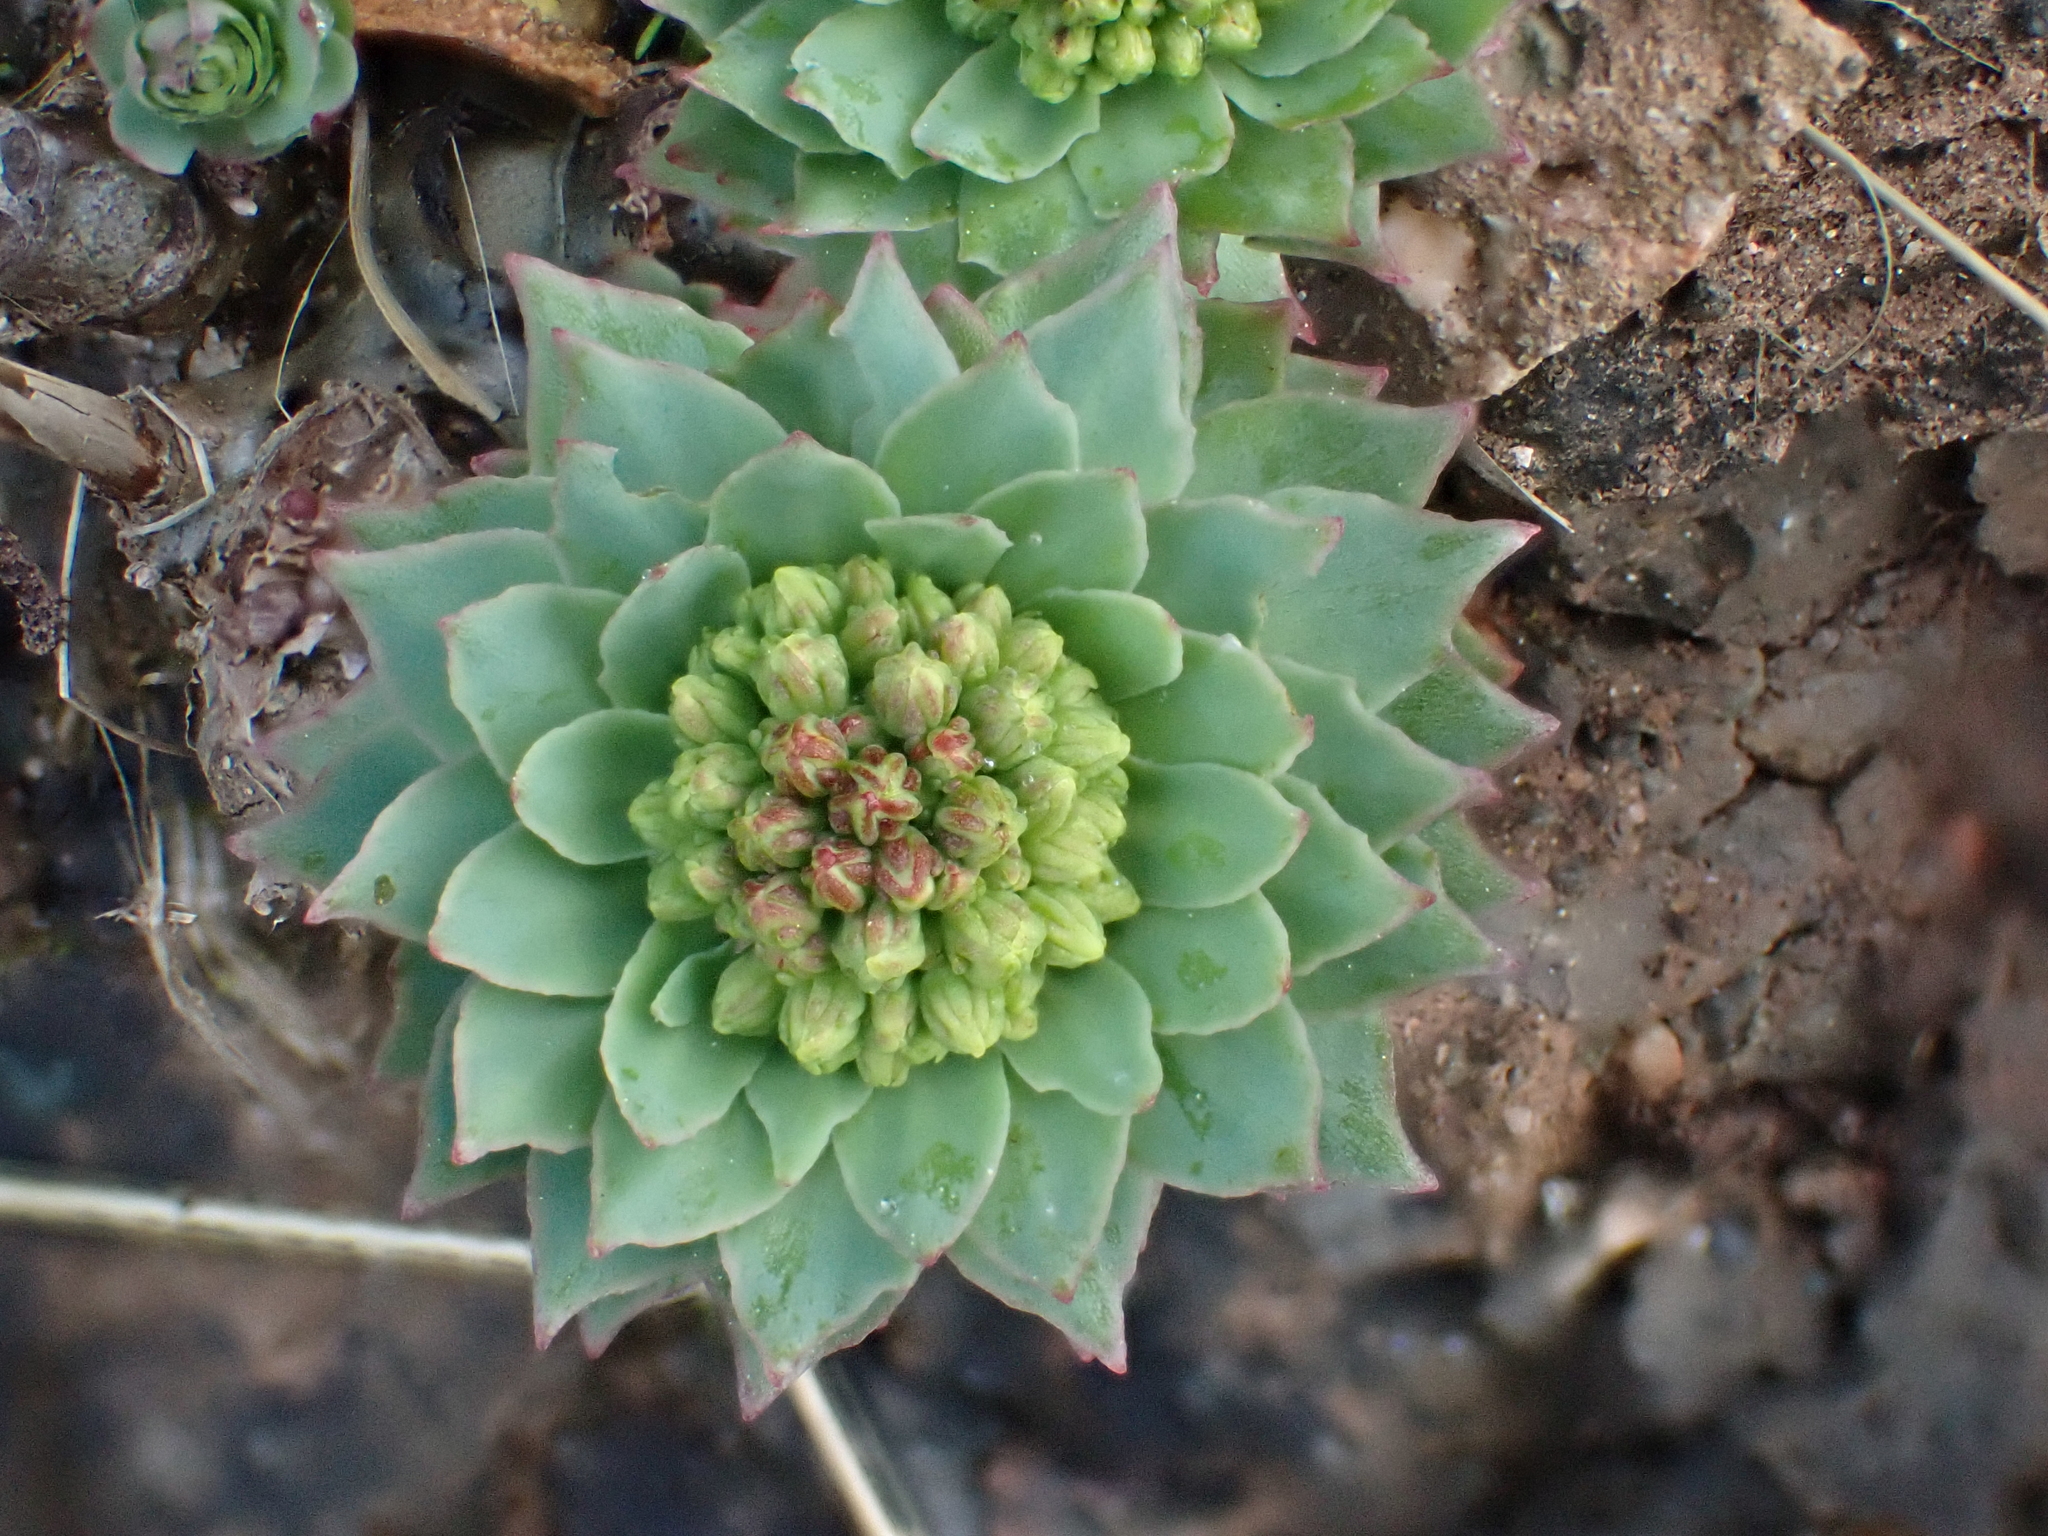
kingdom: Plantae
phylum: Tracheophyta
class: Magnoliopsida
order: Saxifragales
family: Crassulaceae
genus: Rhodiola
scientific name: Rhodiola rosea
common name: Roseroot
